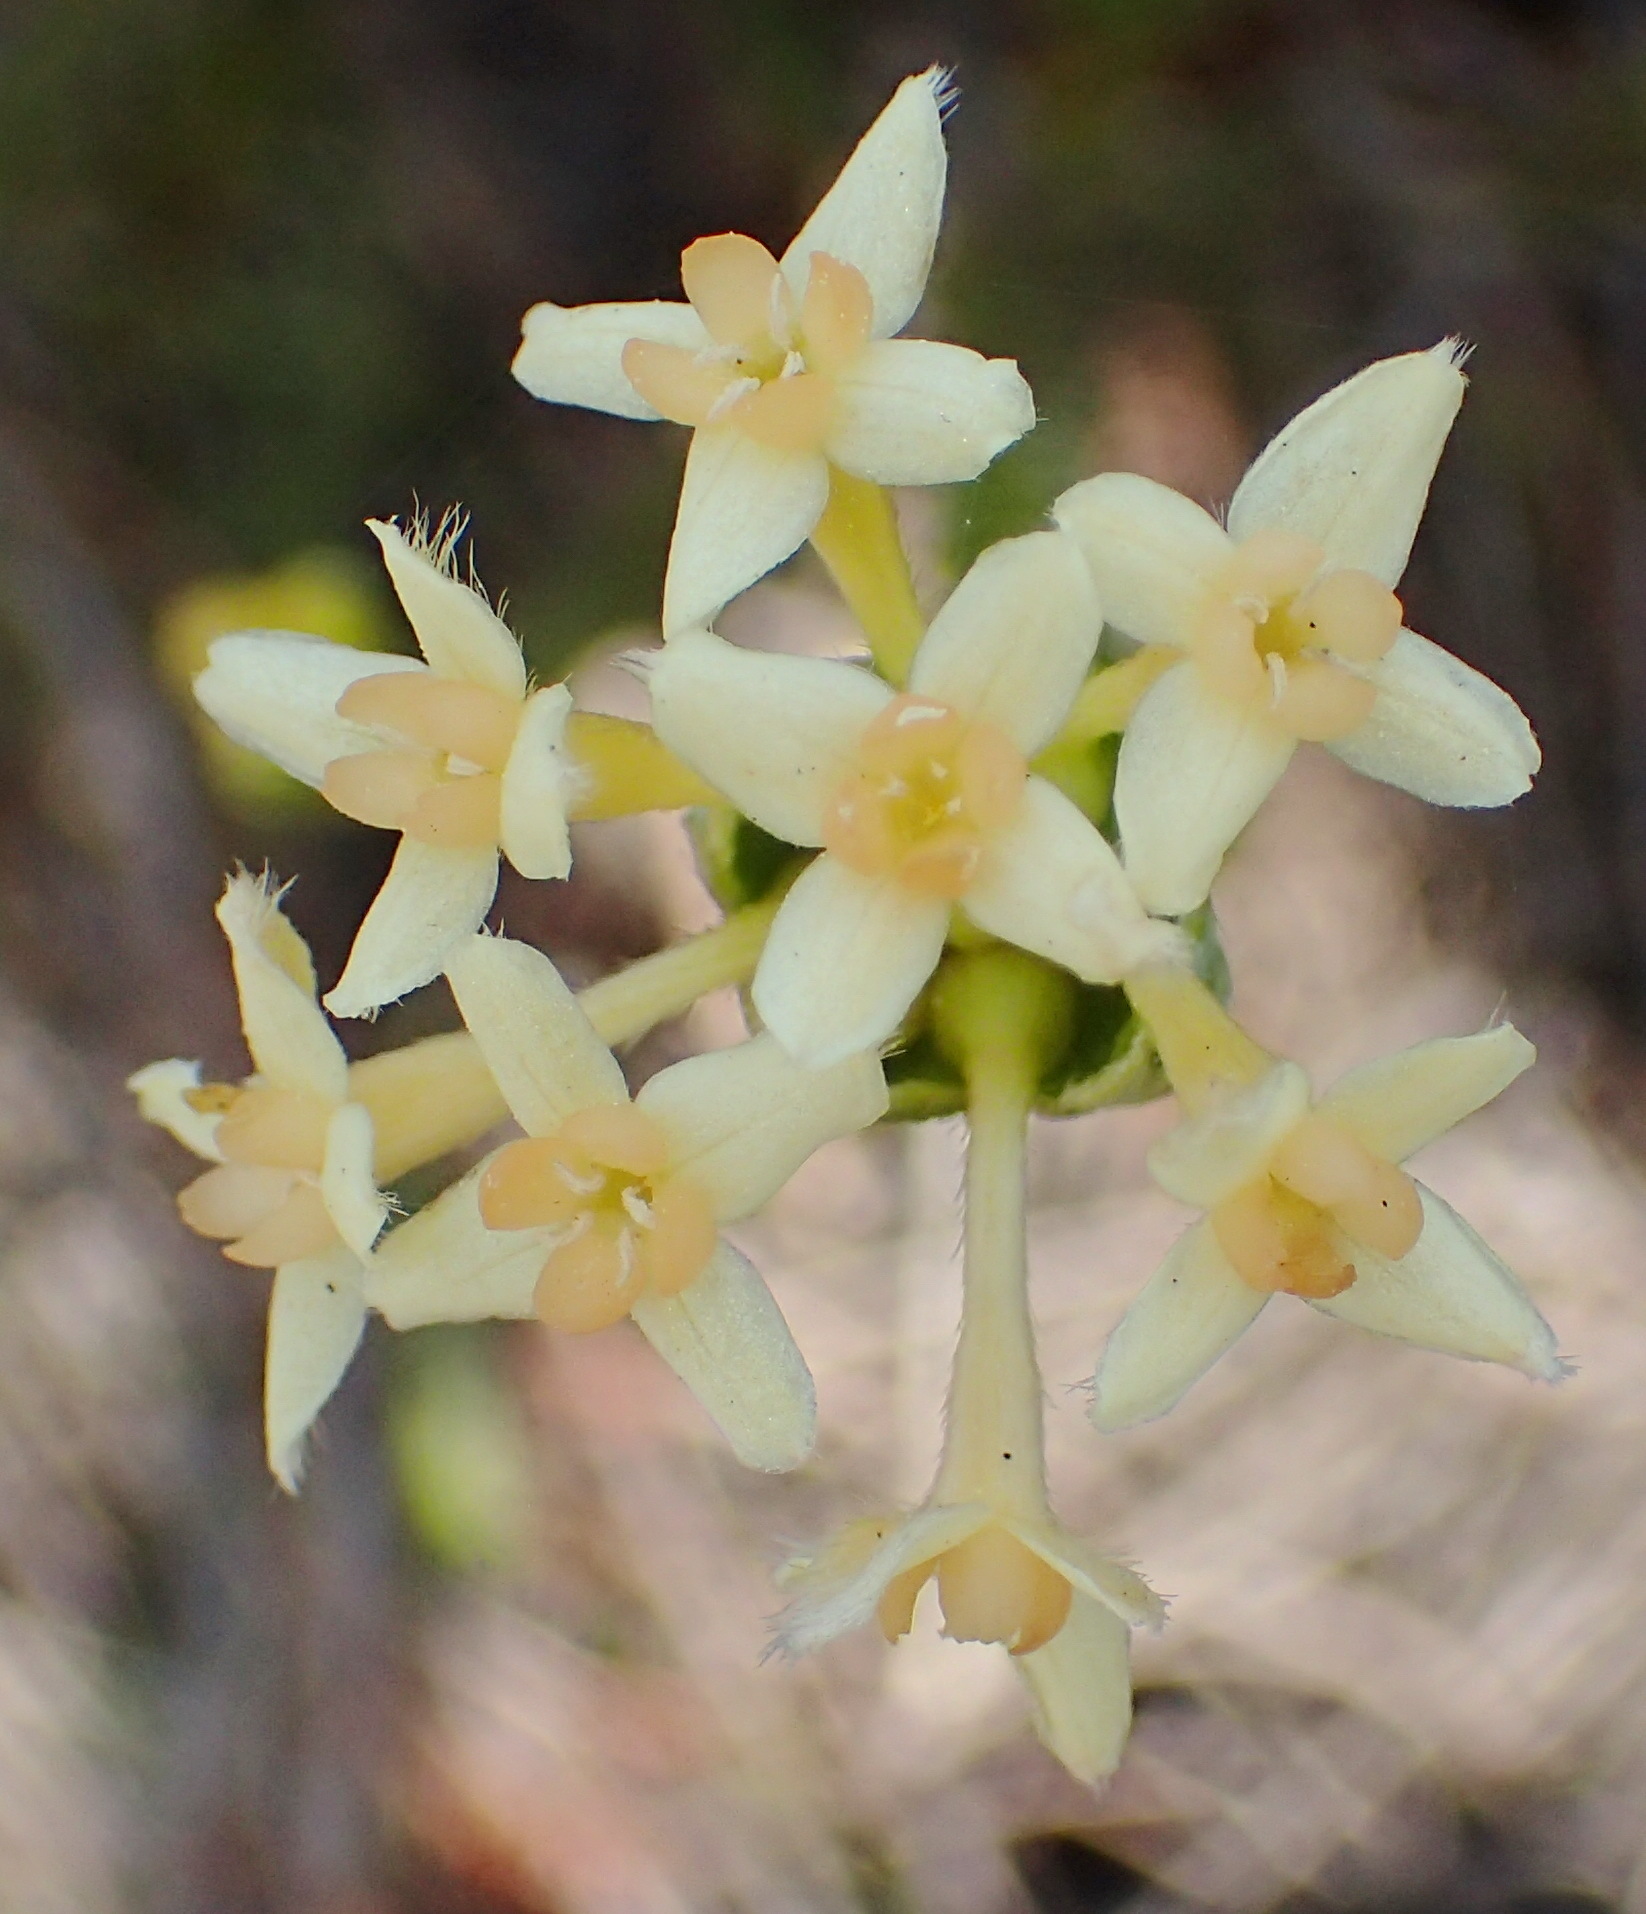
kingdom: Plantae
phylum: Tracheophyta
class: Magnoliopsida
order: Malvales
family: Thymelaeaceae
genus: Gnidia
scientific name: Gnidia chrysophylla
